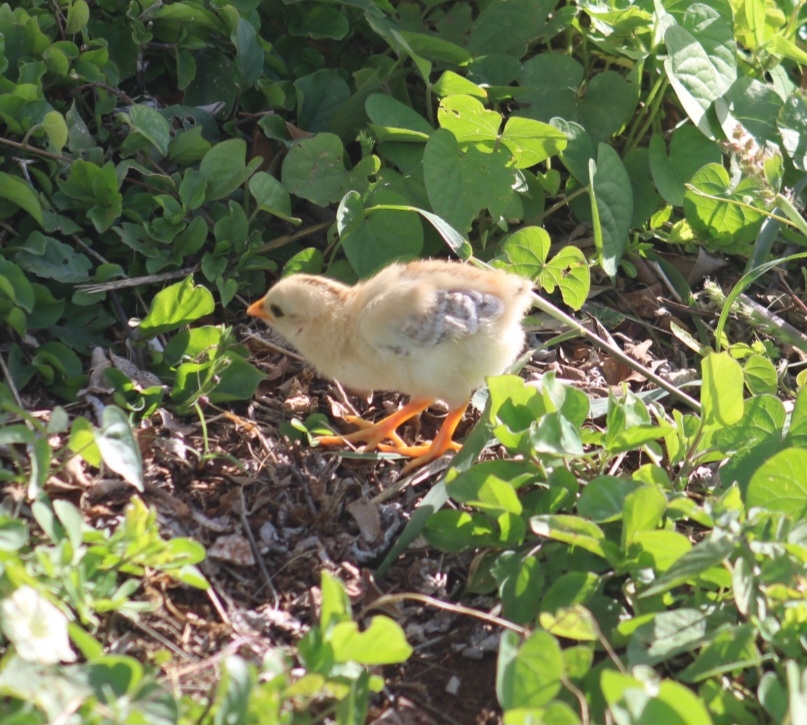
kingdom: Animalia
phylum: Chordata
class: Aves
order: Galliformes
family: Phasianidae
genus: Gallus
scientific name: Gallus gallus
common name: Red junglefowl
